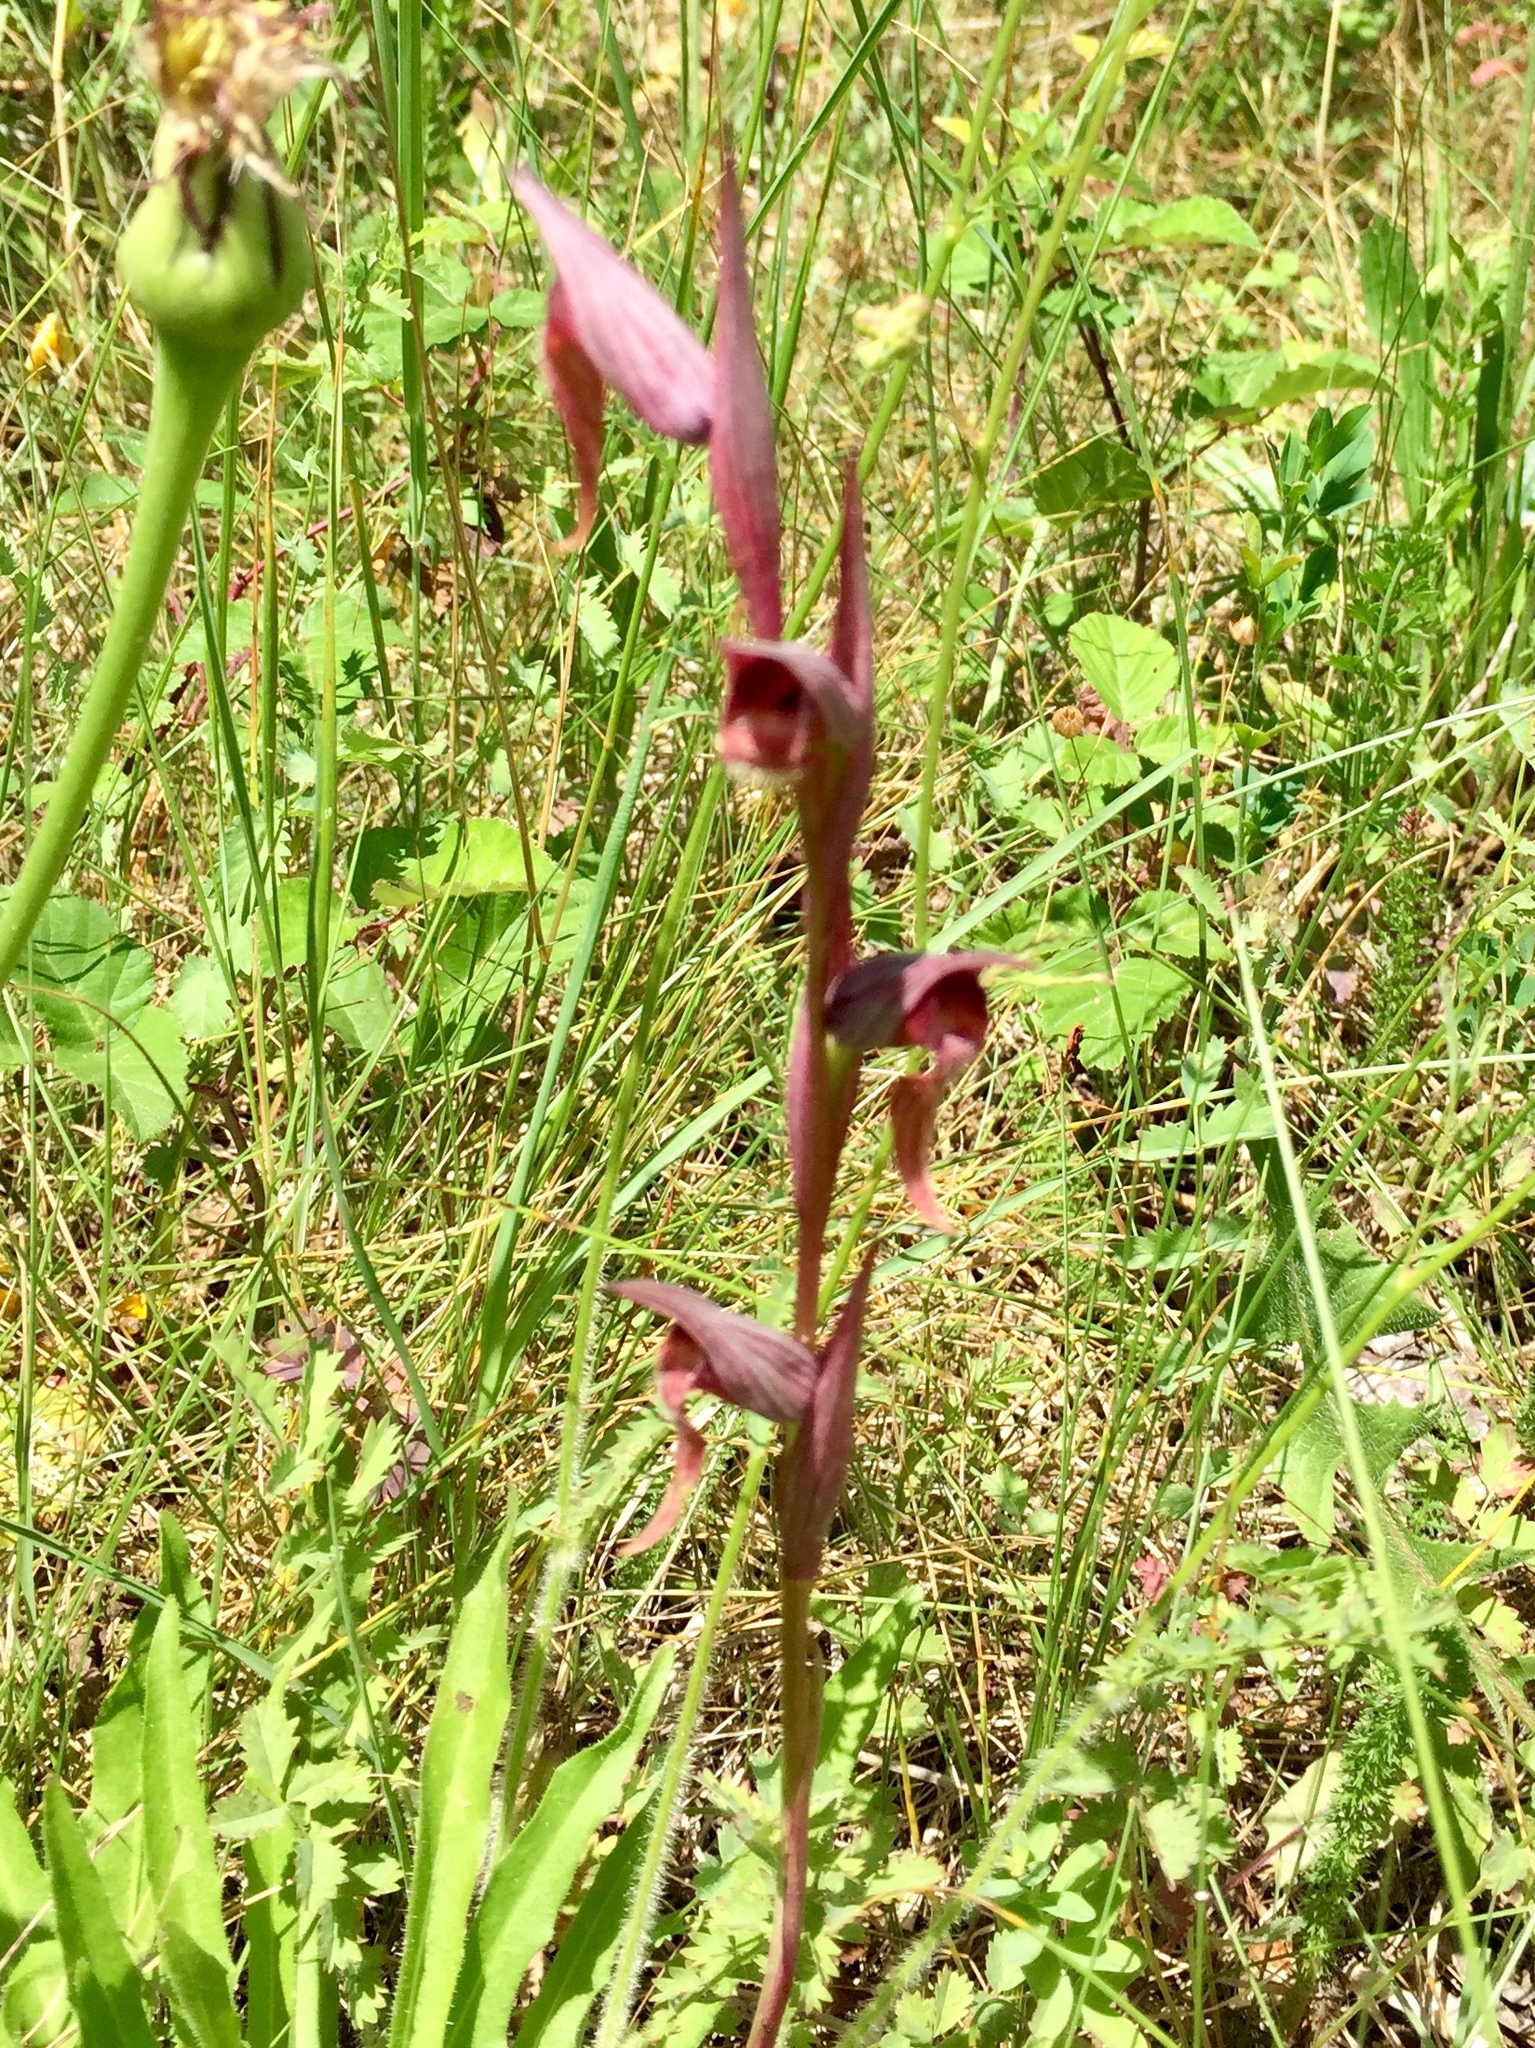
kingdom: Plantae
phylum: Tracheophyta
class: Liliopsida
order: Asparagales
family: Orchidaceae
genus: Serapias
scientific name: Serapias vomeracea
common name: Long-lipped tongue-orchid
